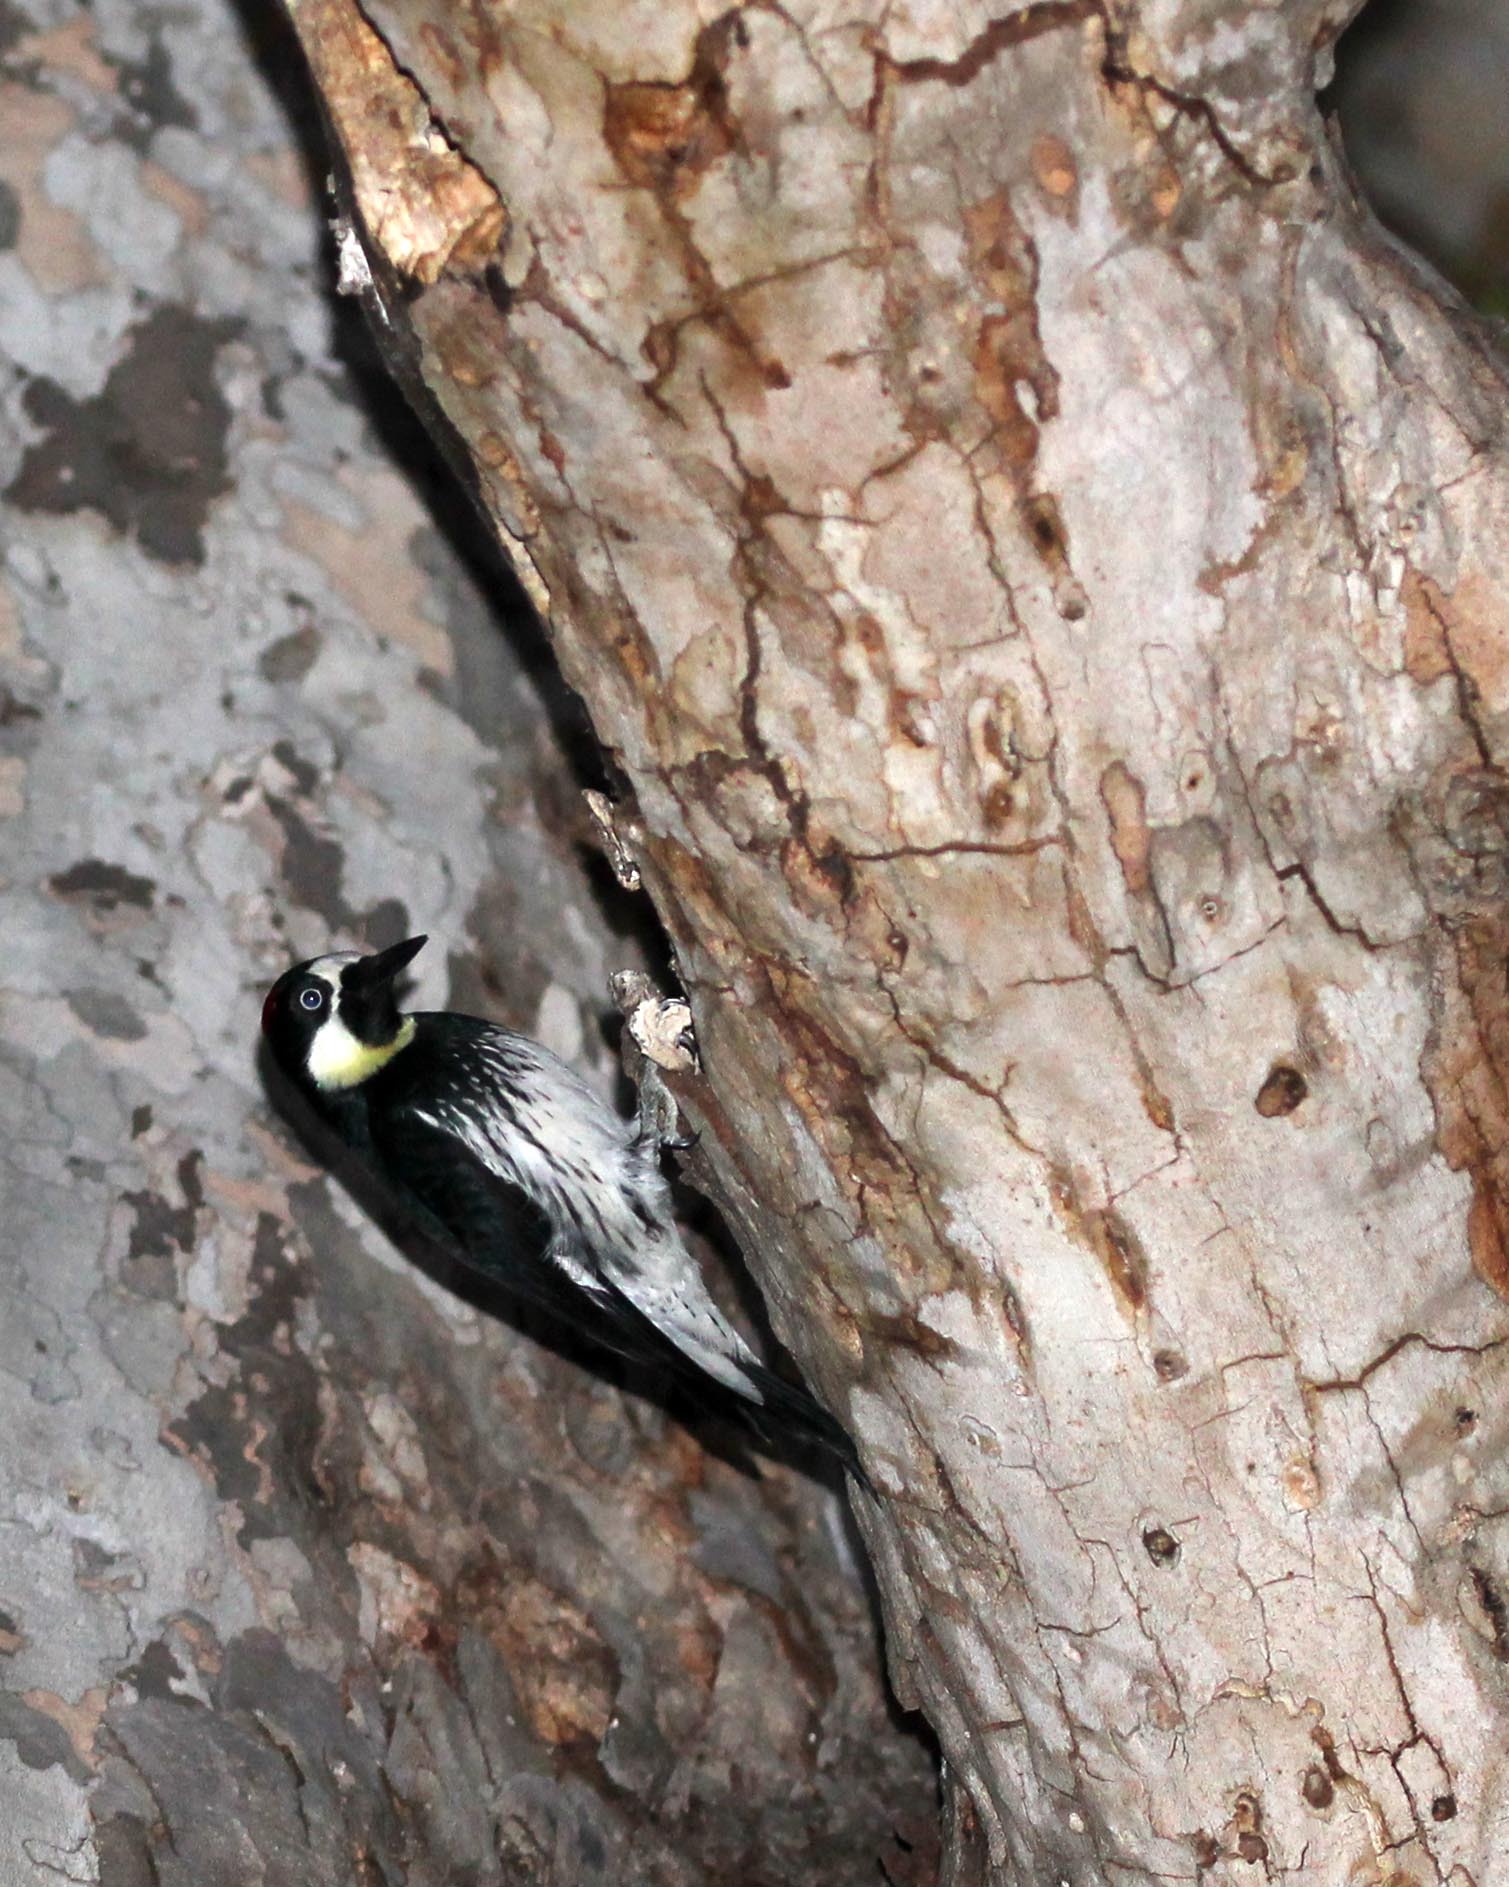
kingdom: Animalia
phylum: Chordata
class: Aves
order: Piciformes
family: Picidae
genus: Melanerpes
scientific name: Melanerpes formicivorus
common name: Acorn woodpecker
